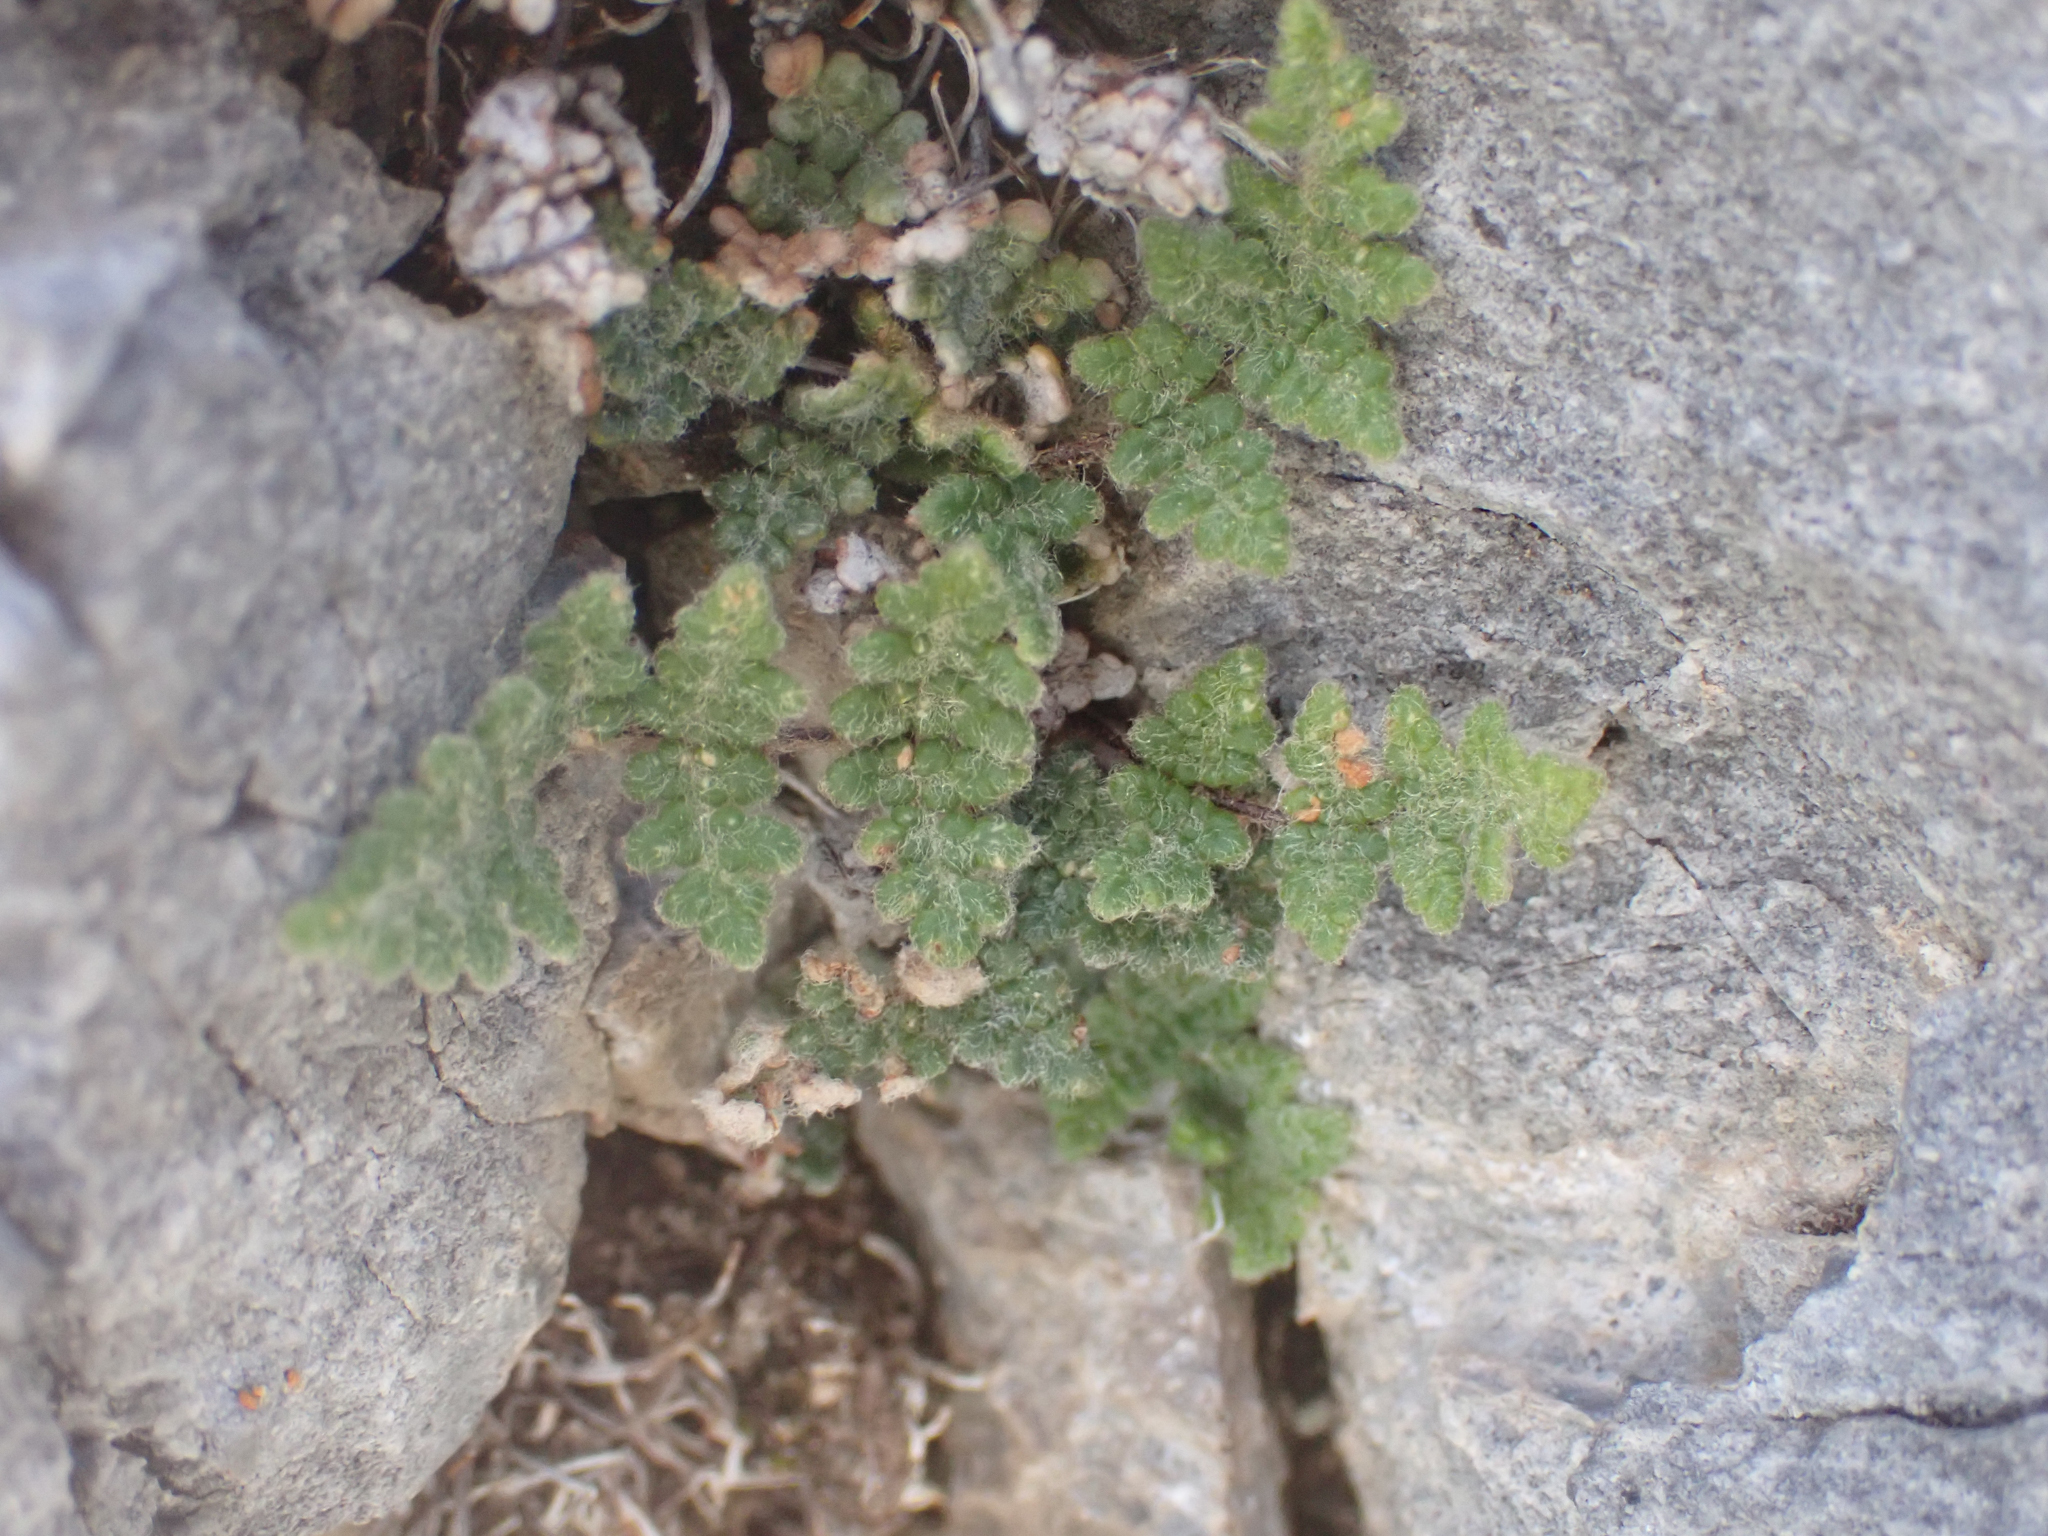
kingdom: Plantae
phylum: Tracheophyta
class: Polypodiopsida
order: Polypodiales
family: Pteridaceae
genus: Myriopteris
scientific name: Myriopteris parryi
